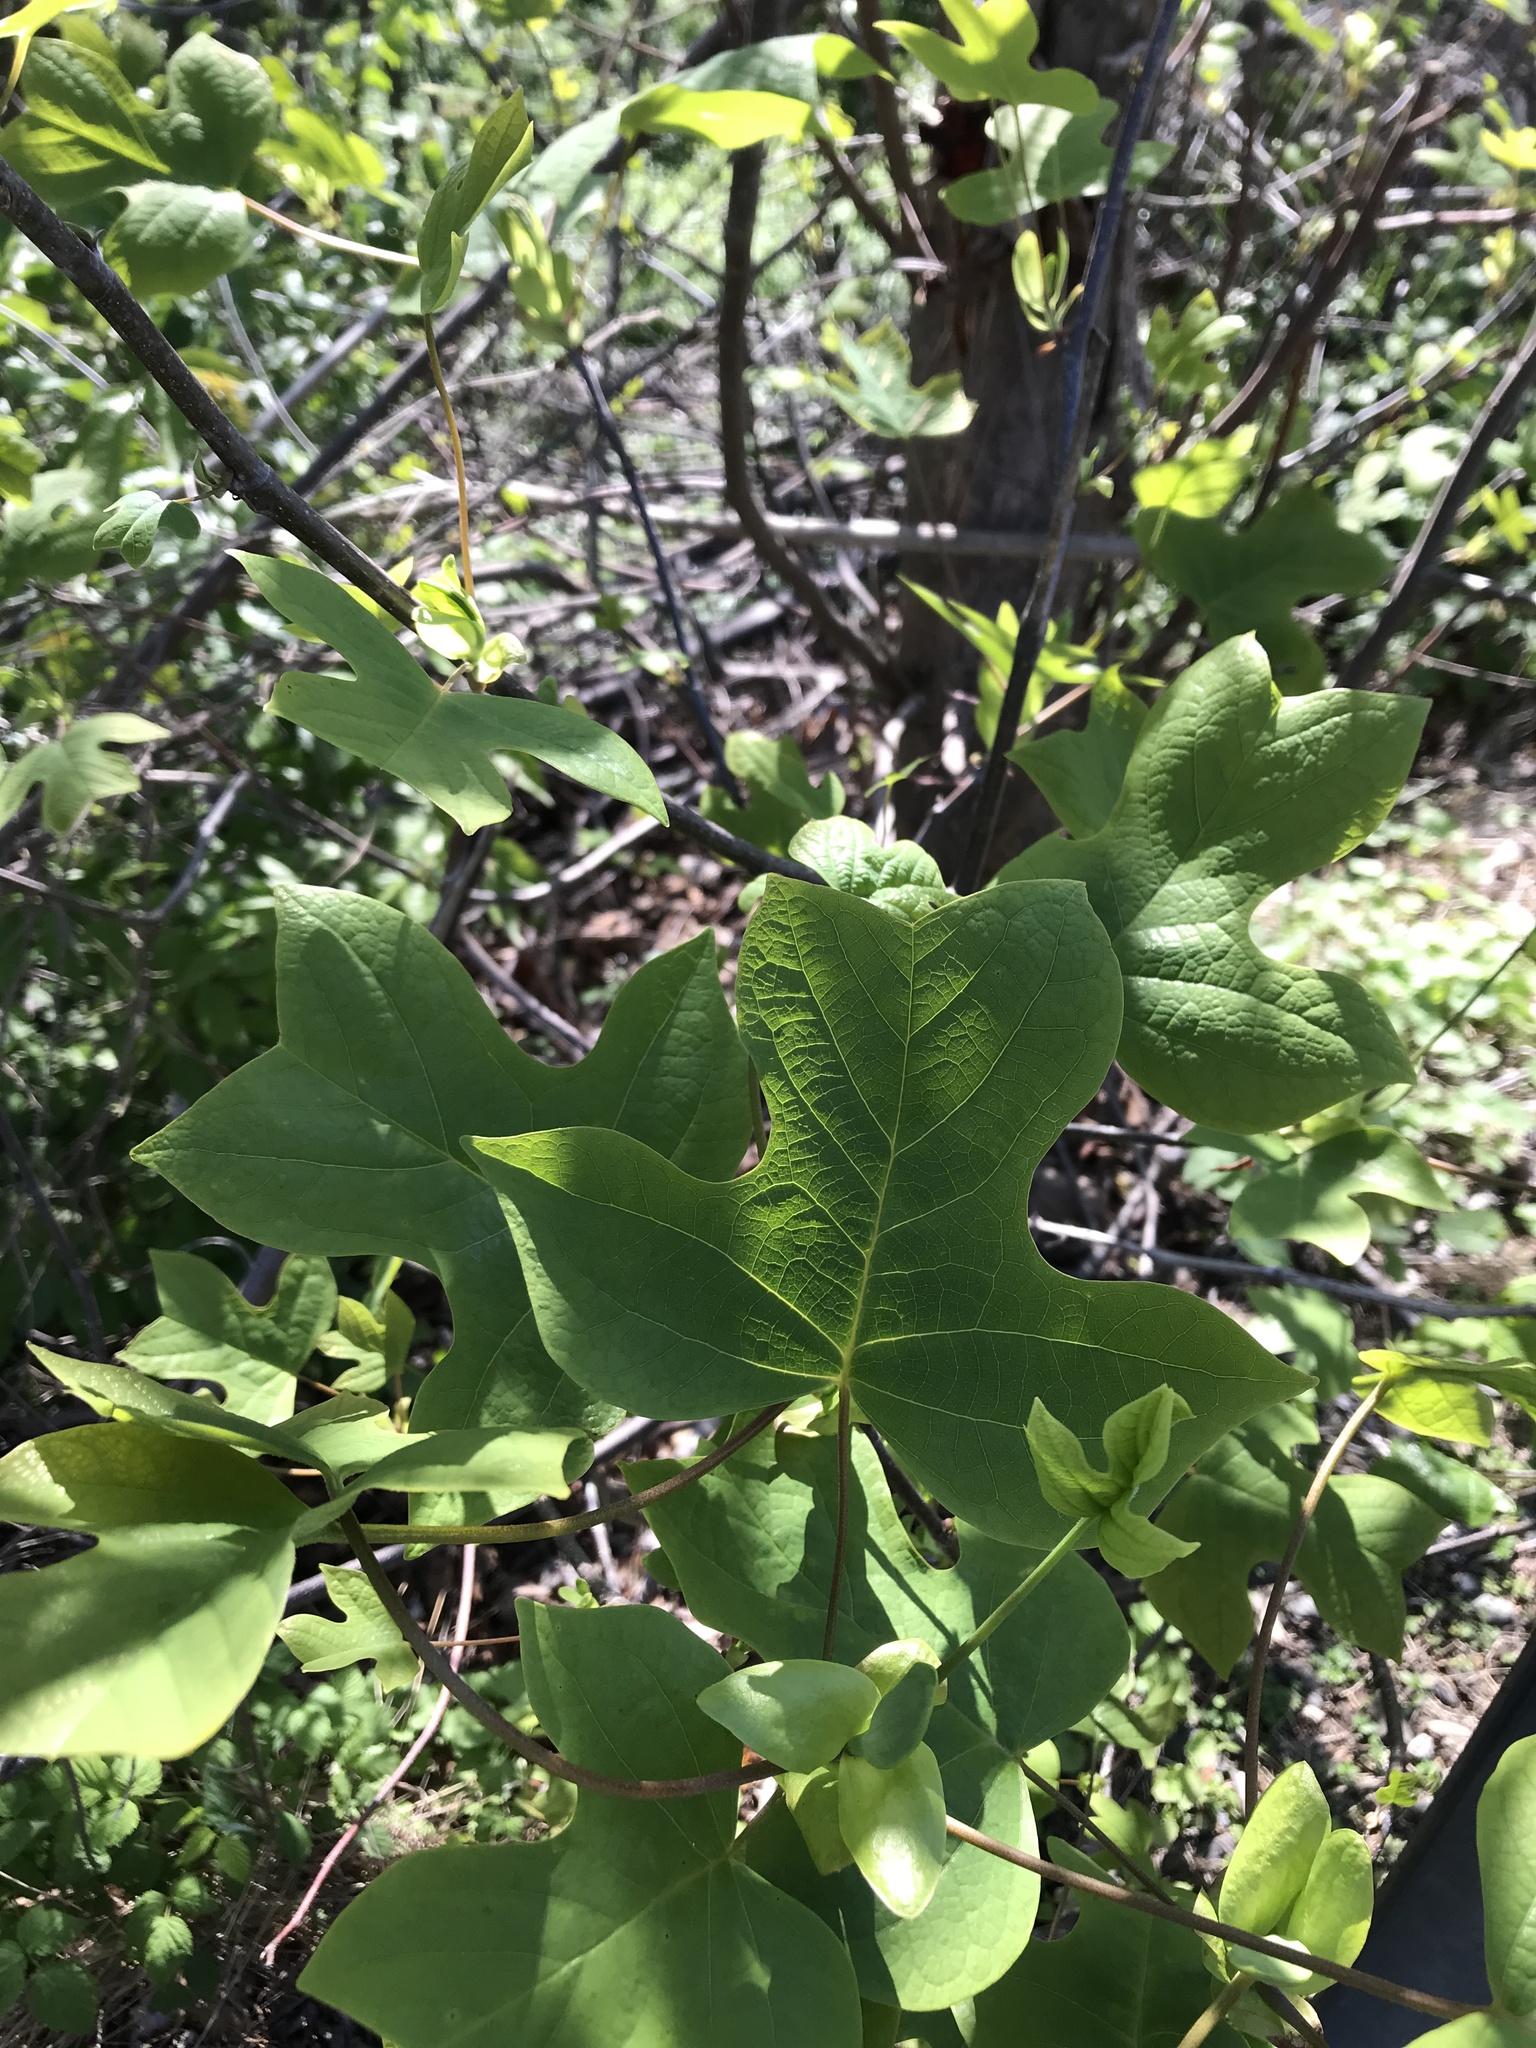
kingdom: Plantae
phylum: Tracheophyta
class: Magnoliopsida
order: Magnoliales
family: Magnoliaceae
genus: Liriodendron
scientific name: Liriodendron tulipifera
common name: Tulip tree
